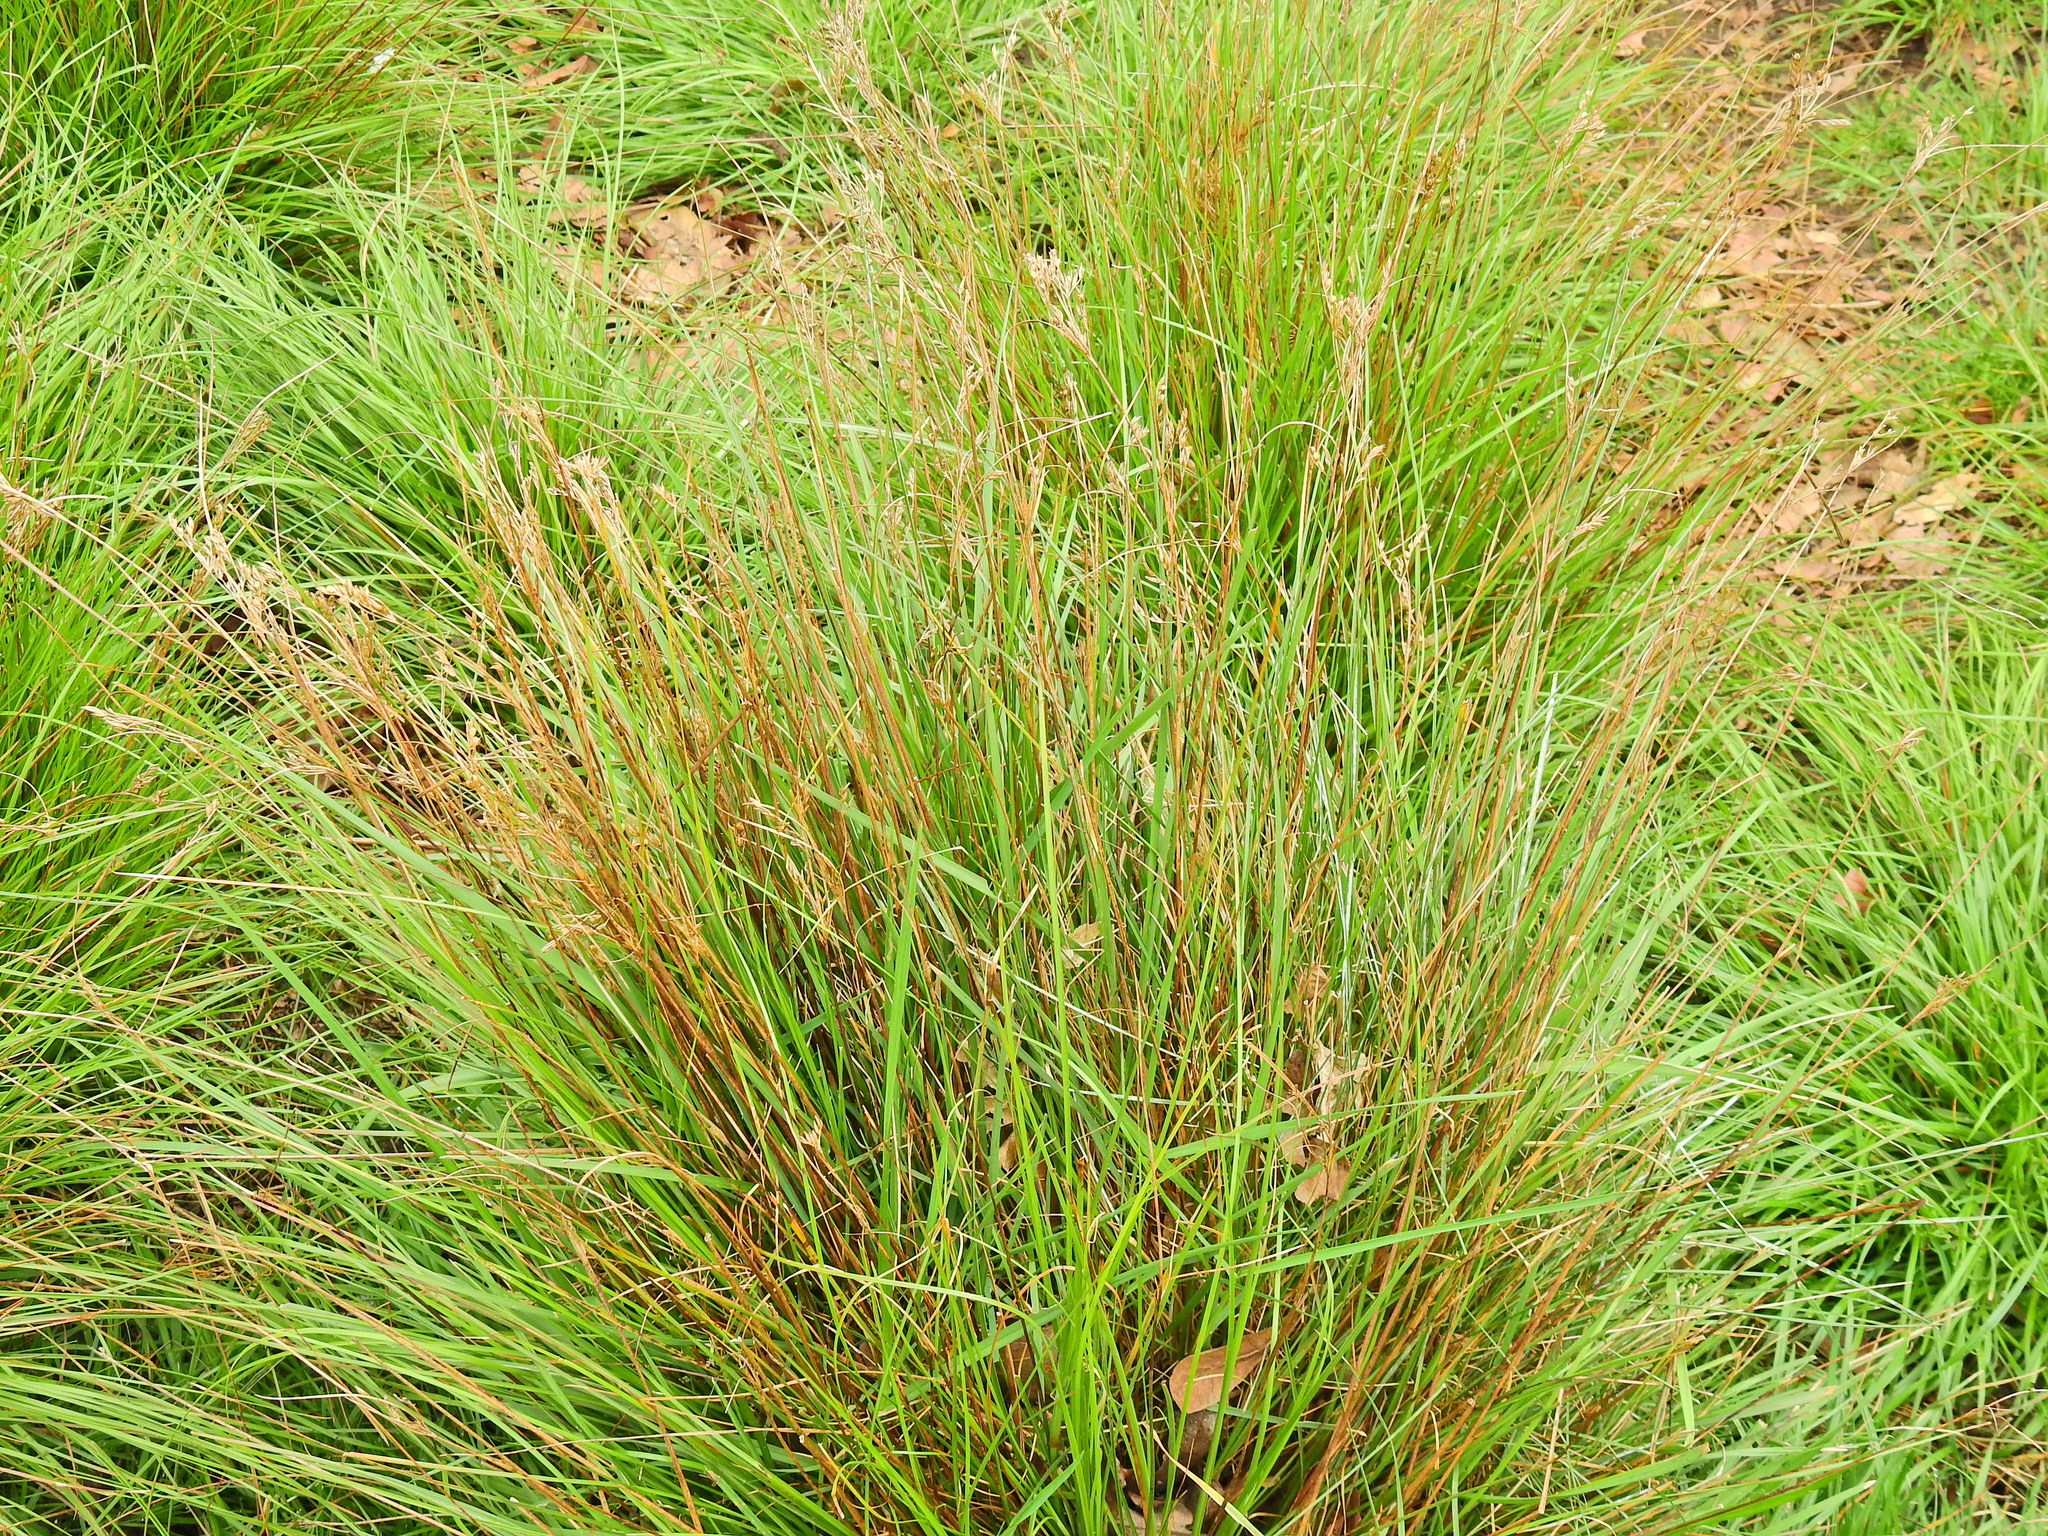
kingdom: Plantae
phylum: Tracheophyta
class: Liliopsida
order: Poales
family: Juncaceae
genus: Juncus
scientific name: Juncus inflexus
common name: Hard rush
